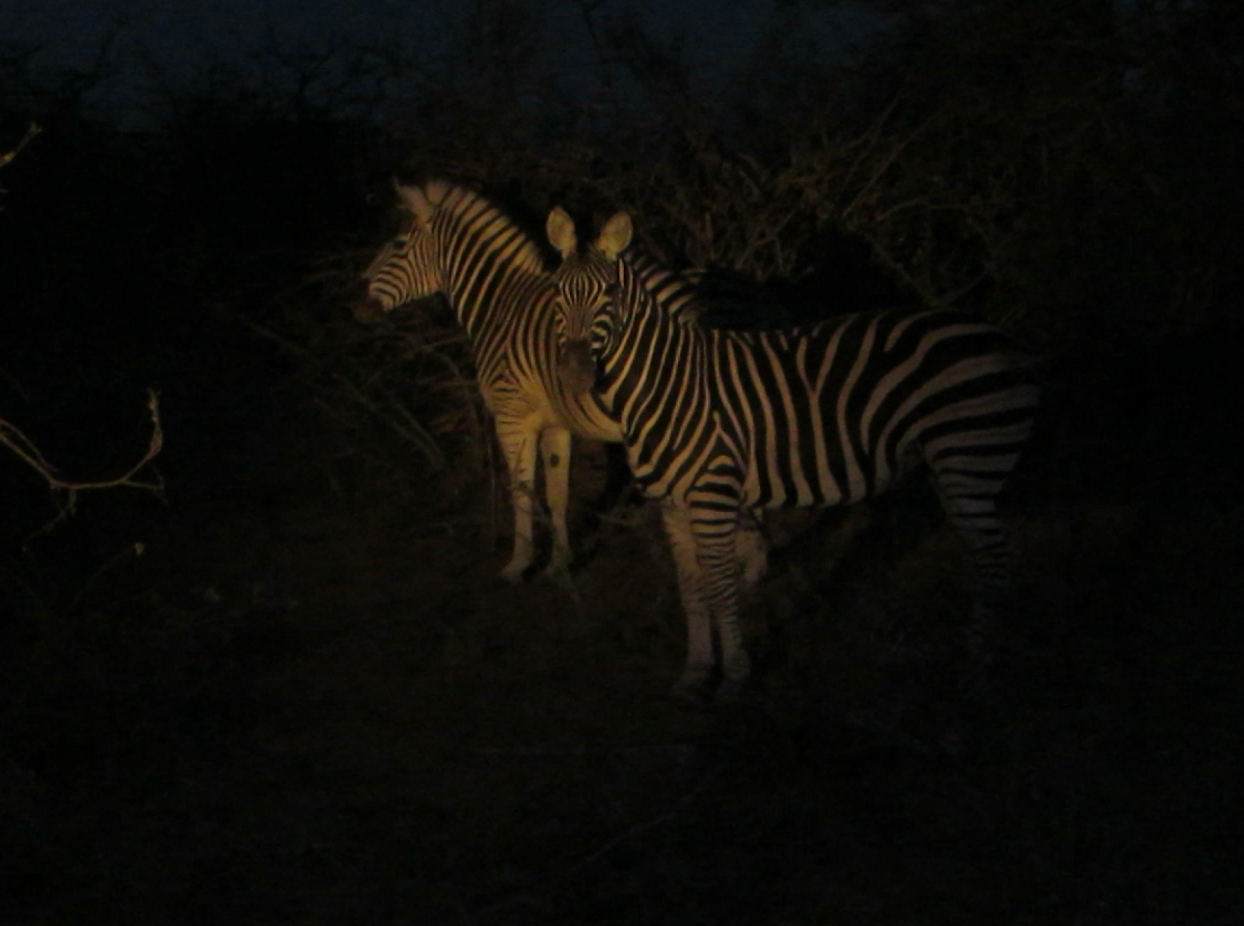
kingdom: Animalia
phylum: Chordata
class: Mammalia
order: Perissodactyla
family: Equidae
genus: Equus
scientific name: Equus quagga
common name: Plains zebra
